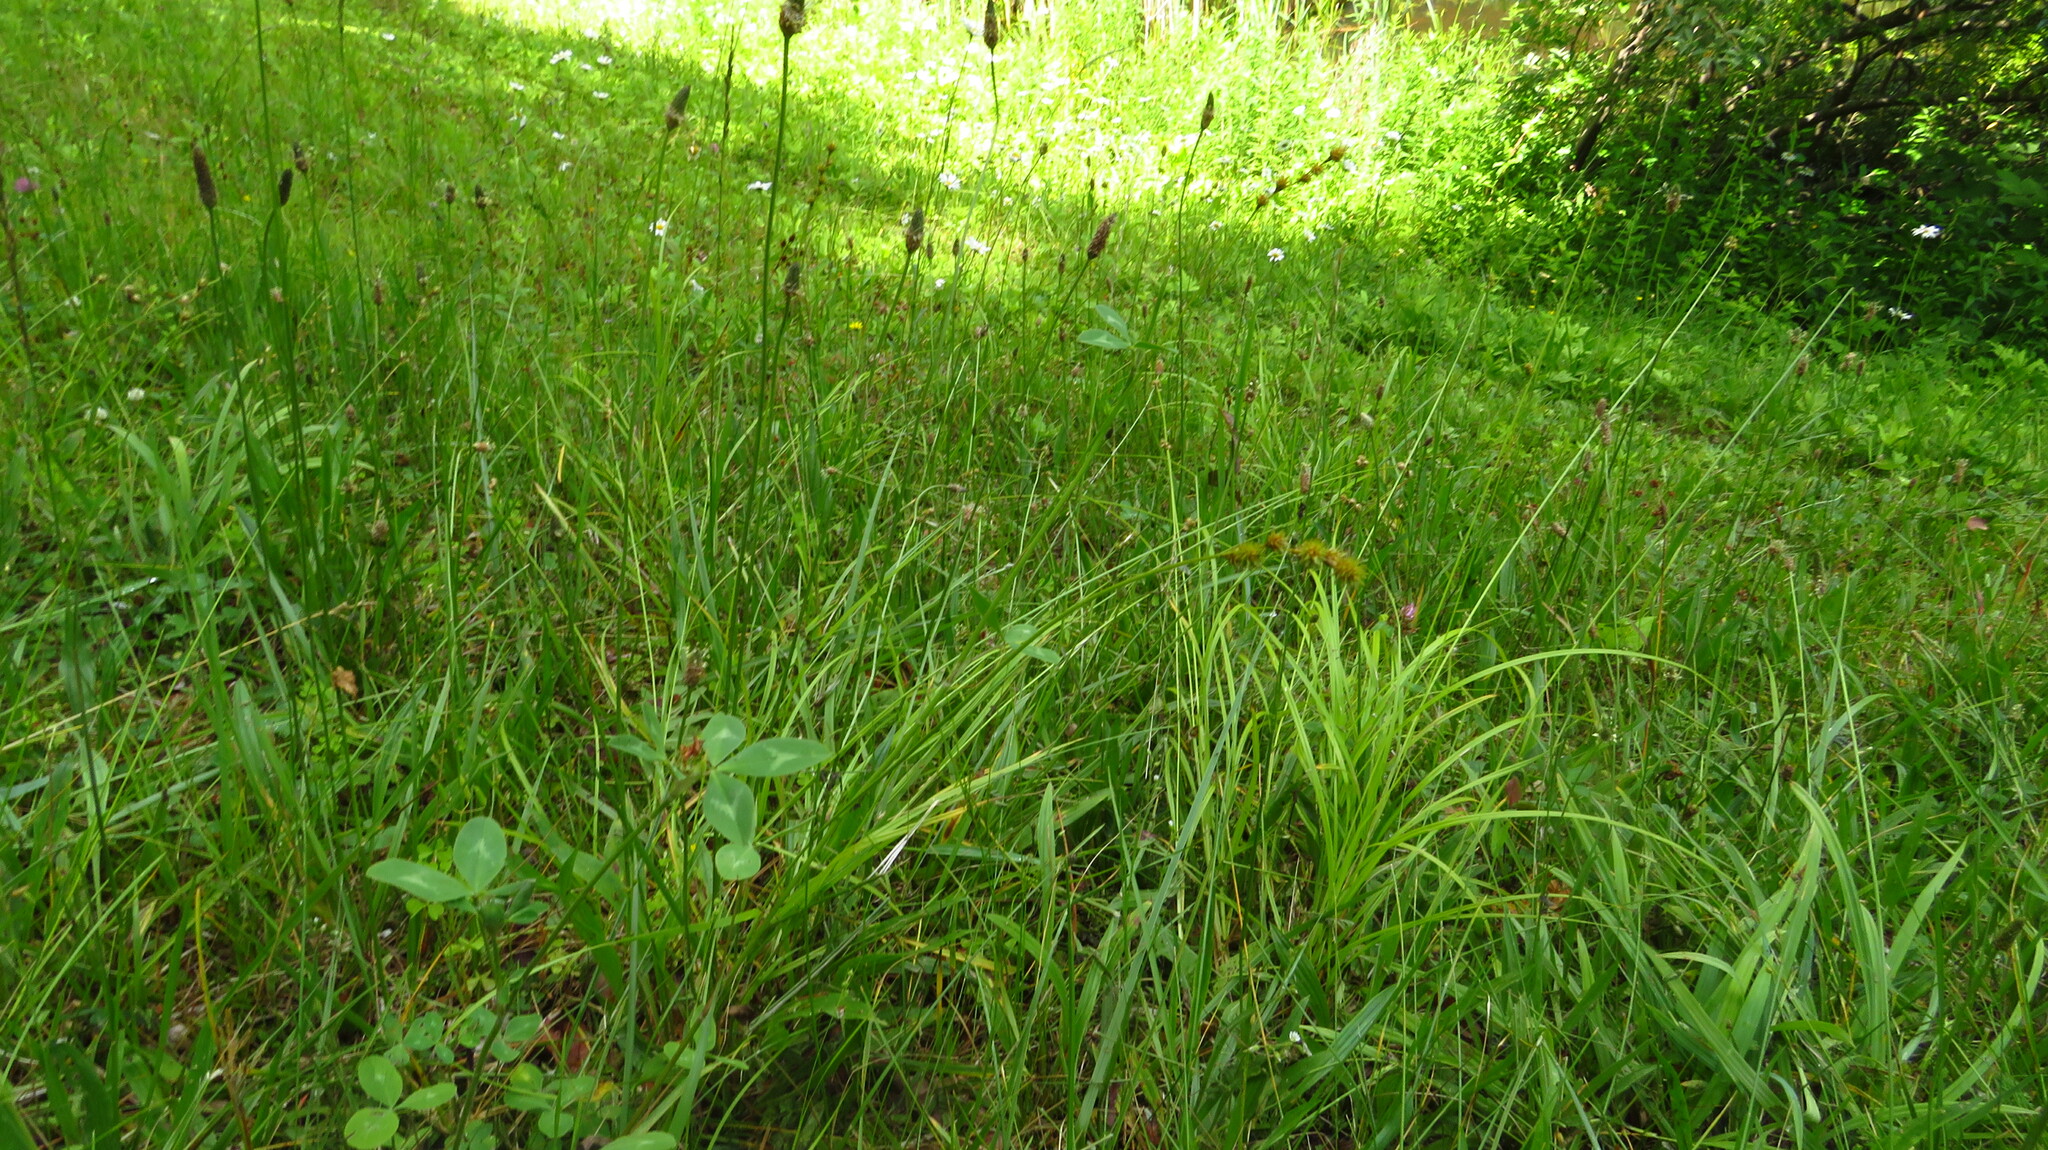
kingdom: Plantae
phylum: Tracheophyta
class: Magnoliopsida
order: Lamiales
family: Plantaginaceae
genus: Plantago
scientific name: Plantago lanceolata
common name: Ribwort plantain
